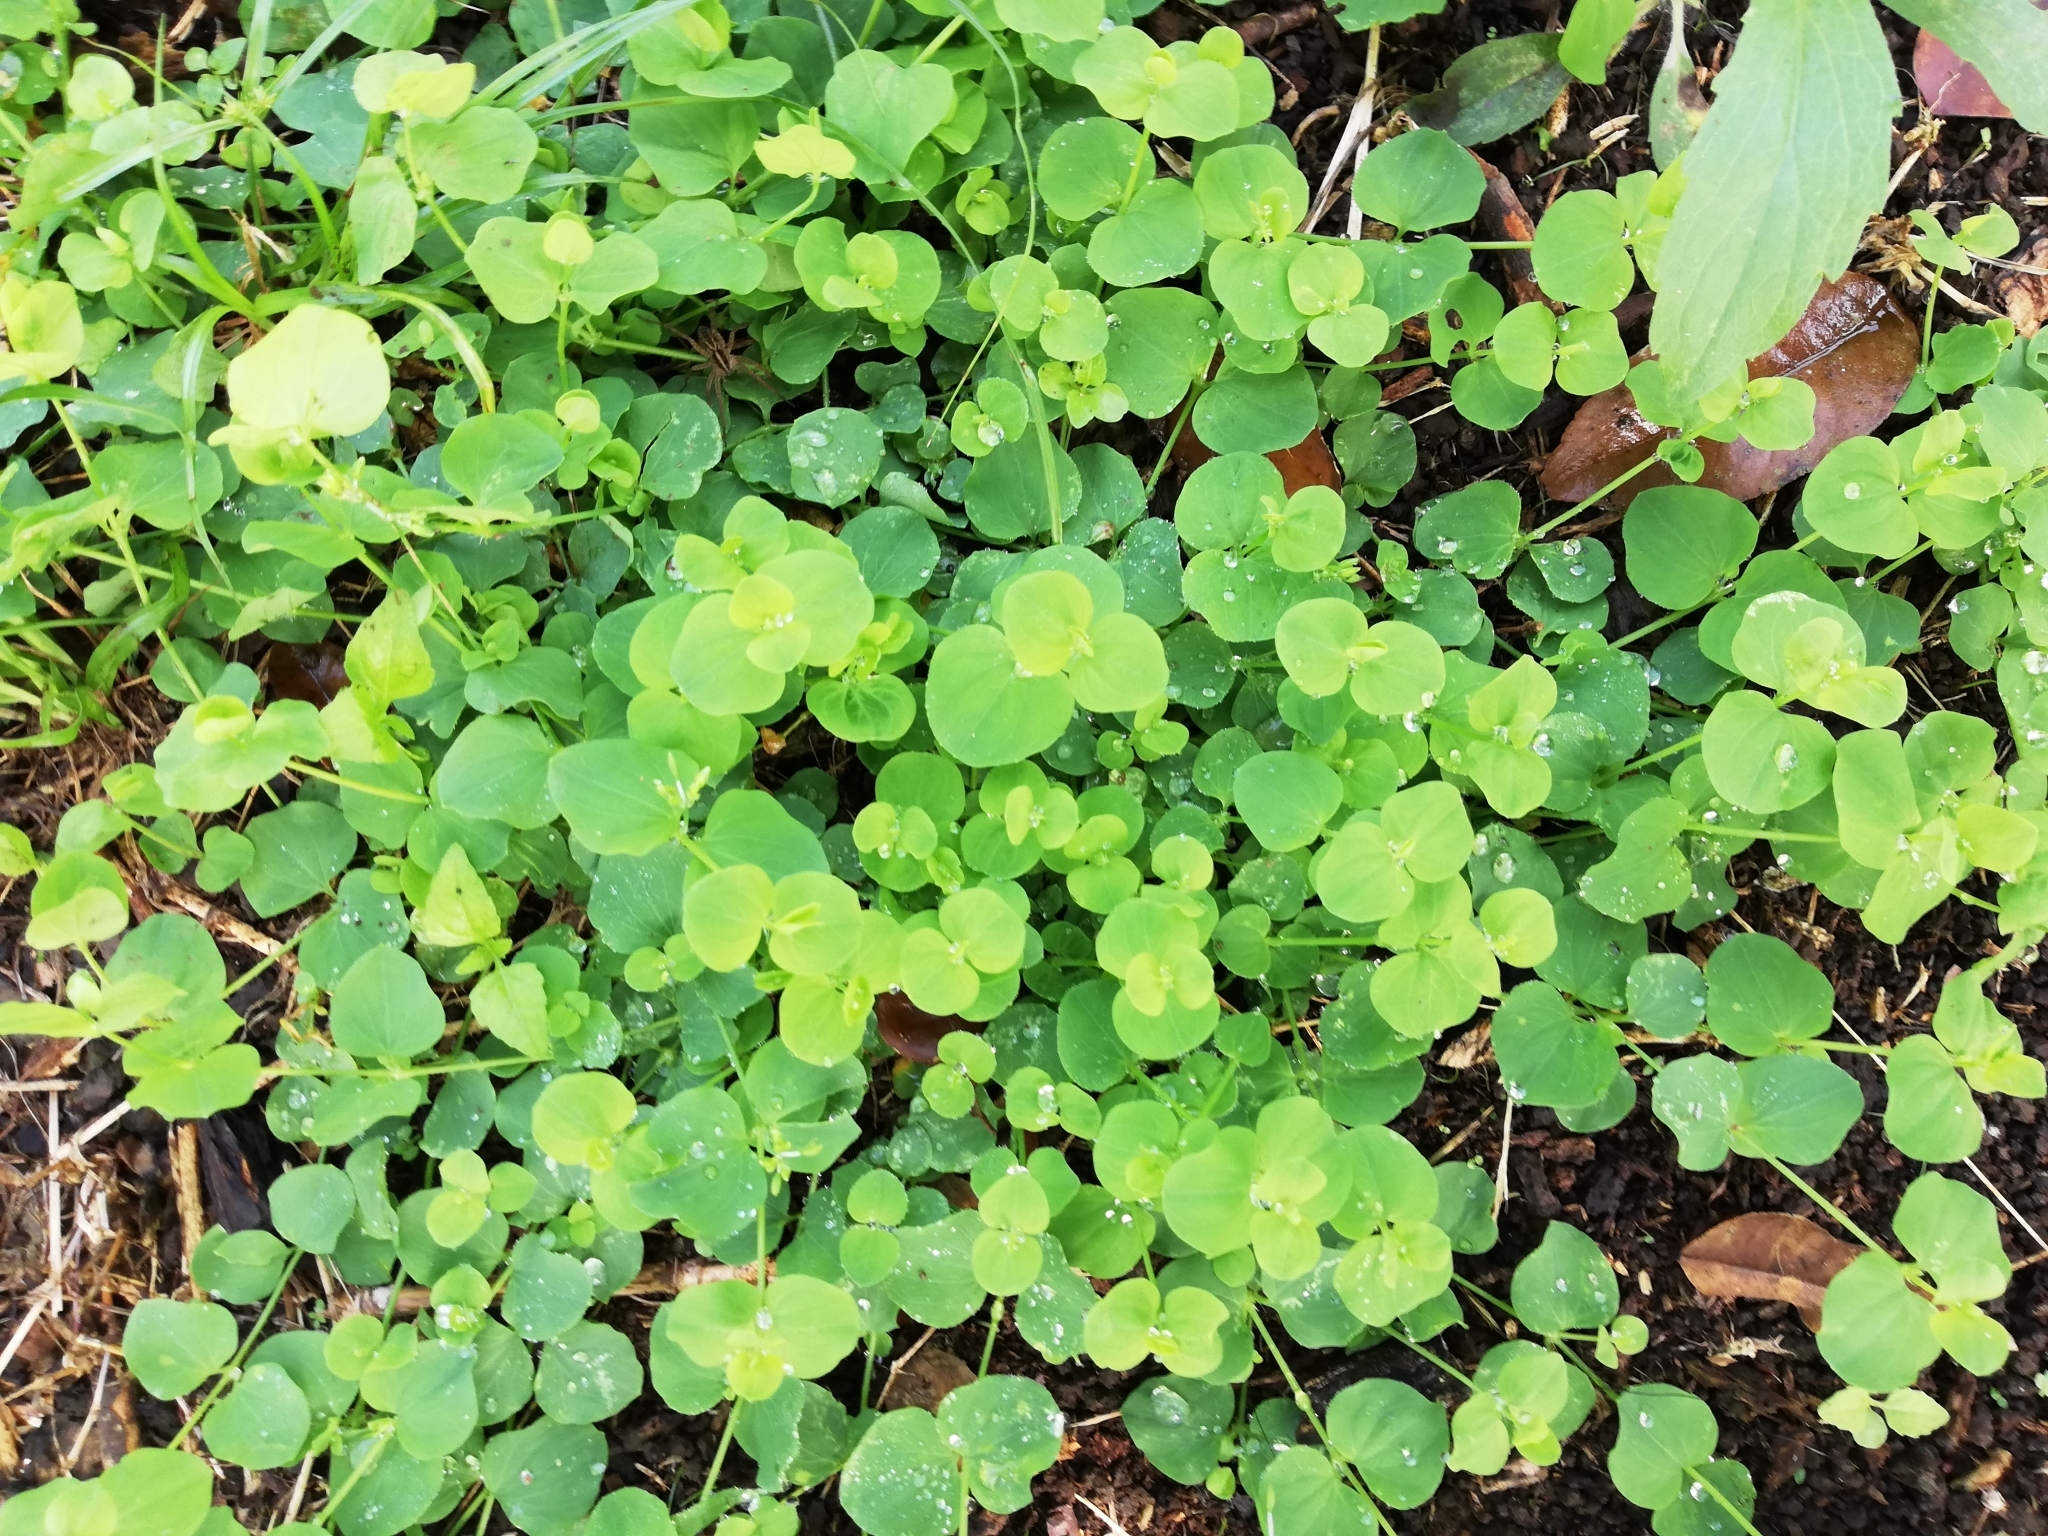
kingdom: Plantae
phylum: Tracheophyta
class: Magnoliopsida
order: Caryophyllales
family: Caryophyllaceae
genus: Drymaria
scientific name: Drymaria cordata
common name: Whitesnow
